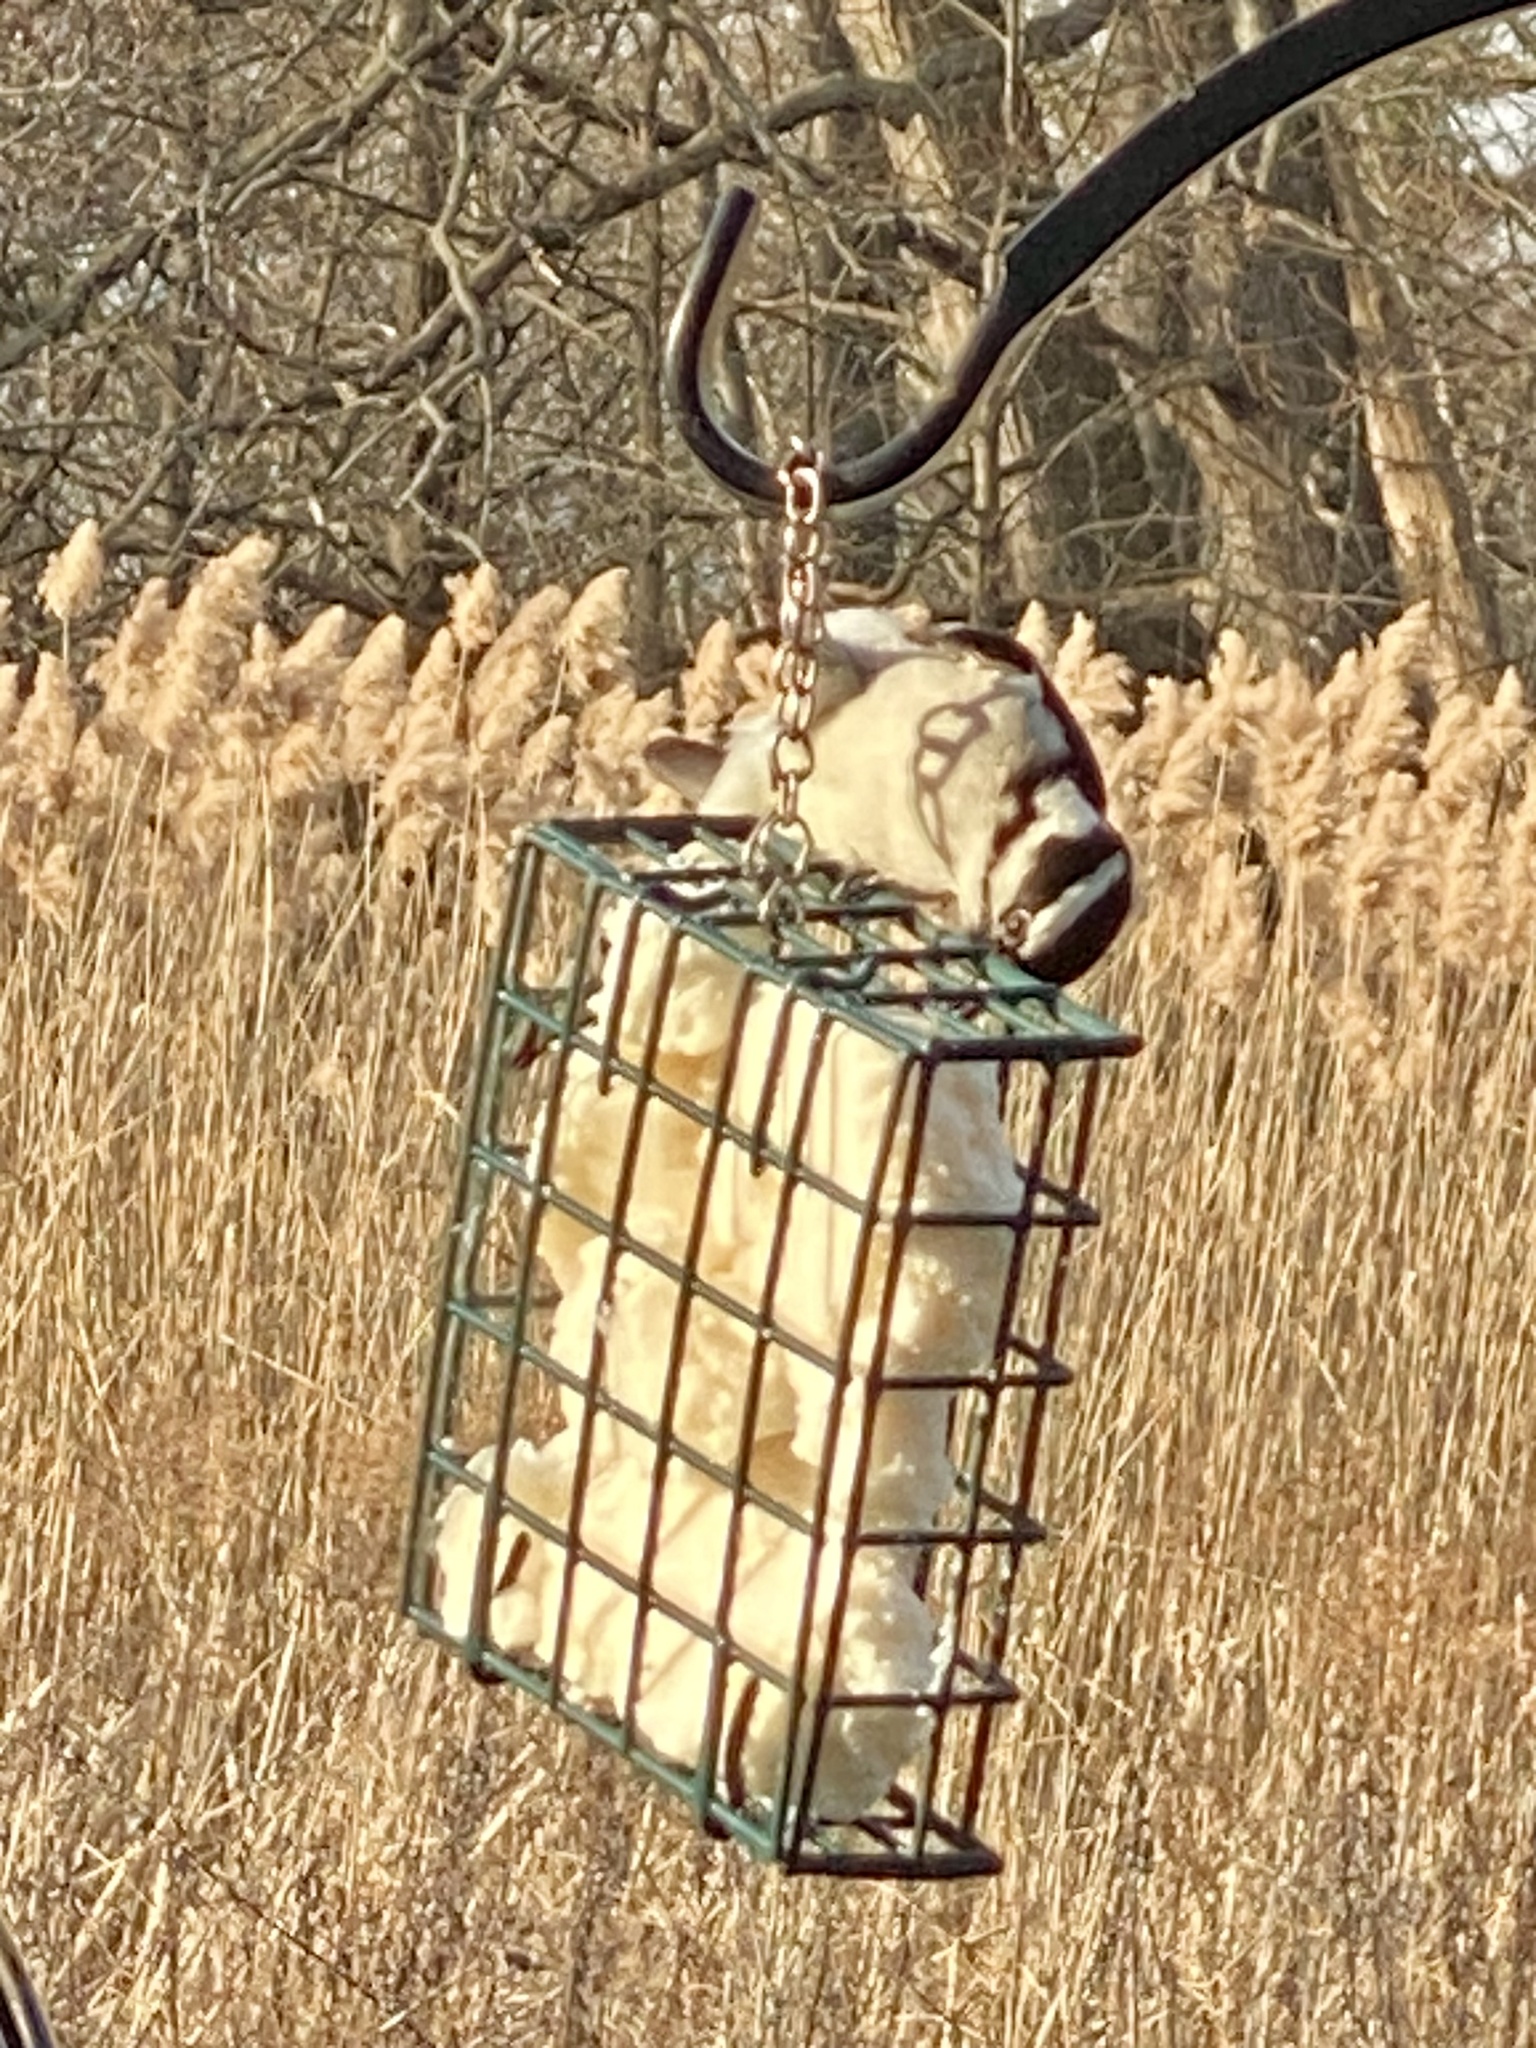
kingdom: Animalia
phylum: Chordata
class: Aves
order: Piciformes
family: Picidae
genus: Dryobates
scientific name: Dryobates pubescens
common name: Downy woodpecker
